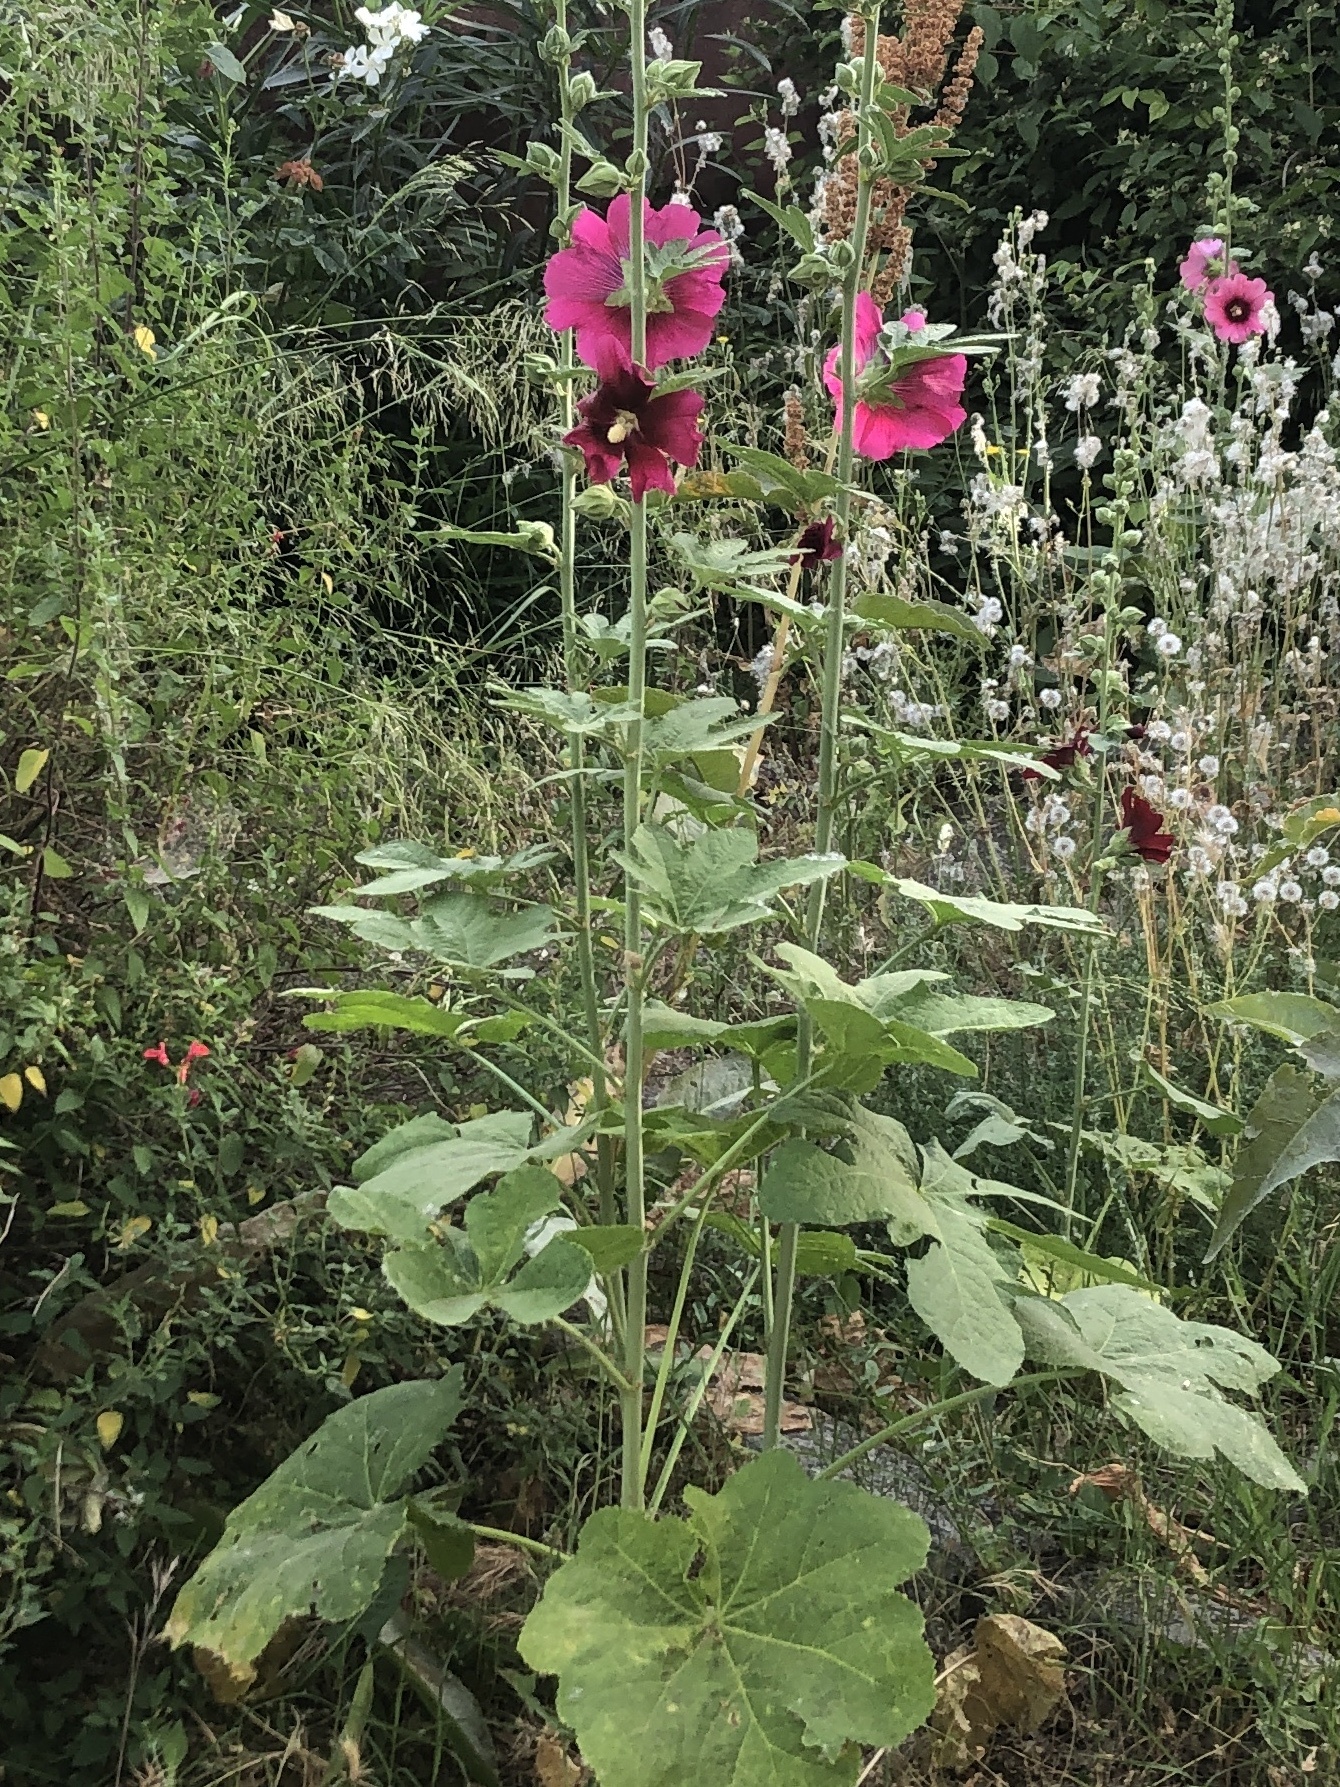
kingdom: Plantae
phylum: Tracheophyta
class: Magnoliopsida
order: Malvales
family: Malvaceae
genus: Alcea
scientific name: Alcea rosea
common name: Hollyhock
